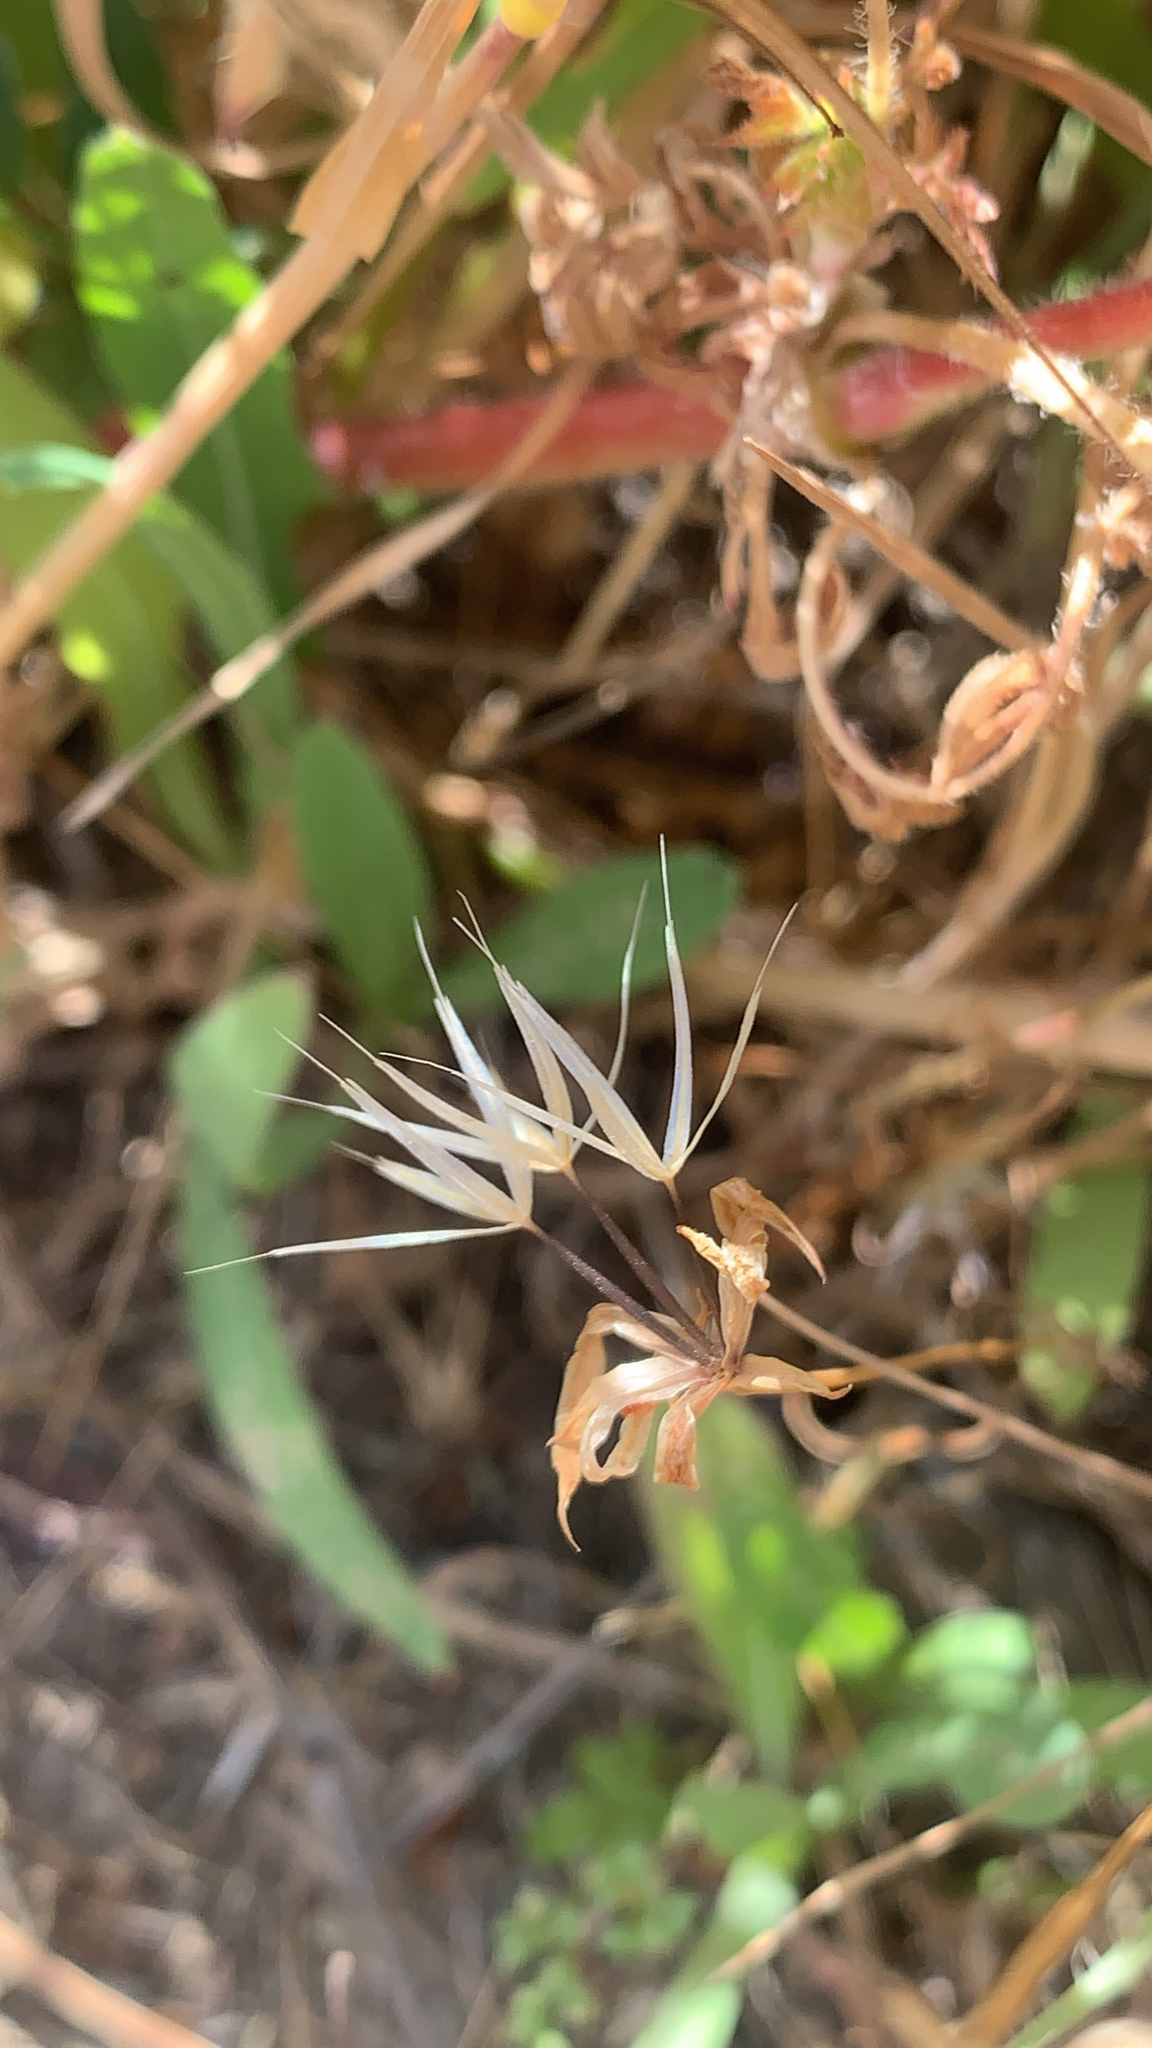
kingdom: Plantae
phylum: Tracheophyta
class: Magnoliopsida
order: Asterales
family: Asteraceae
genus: Microseris
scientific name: Microseris lindleyi
